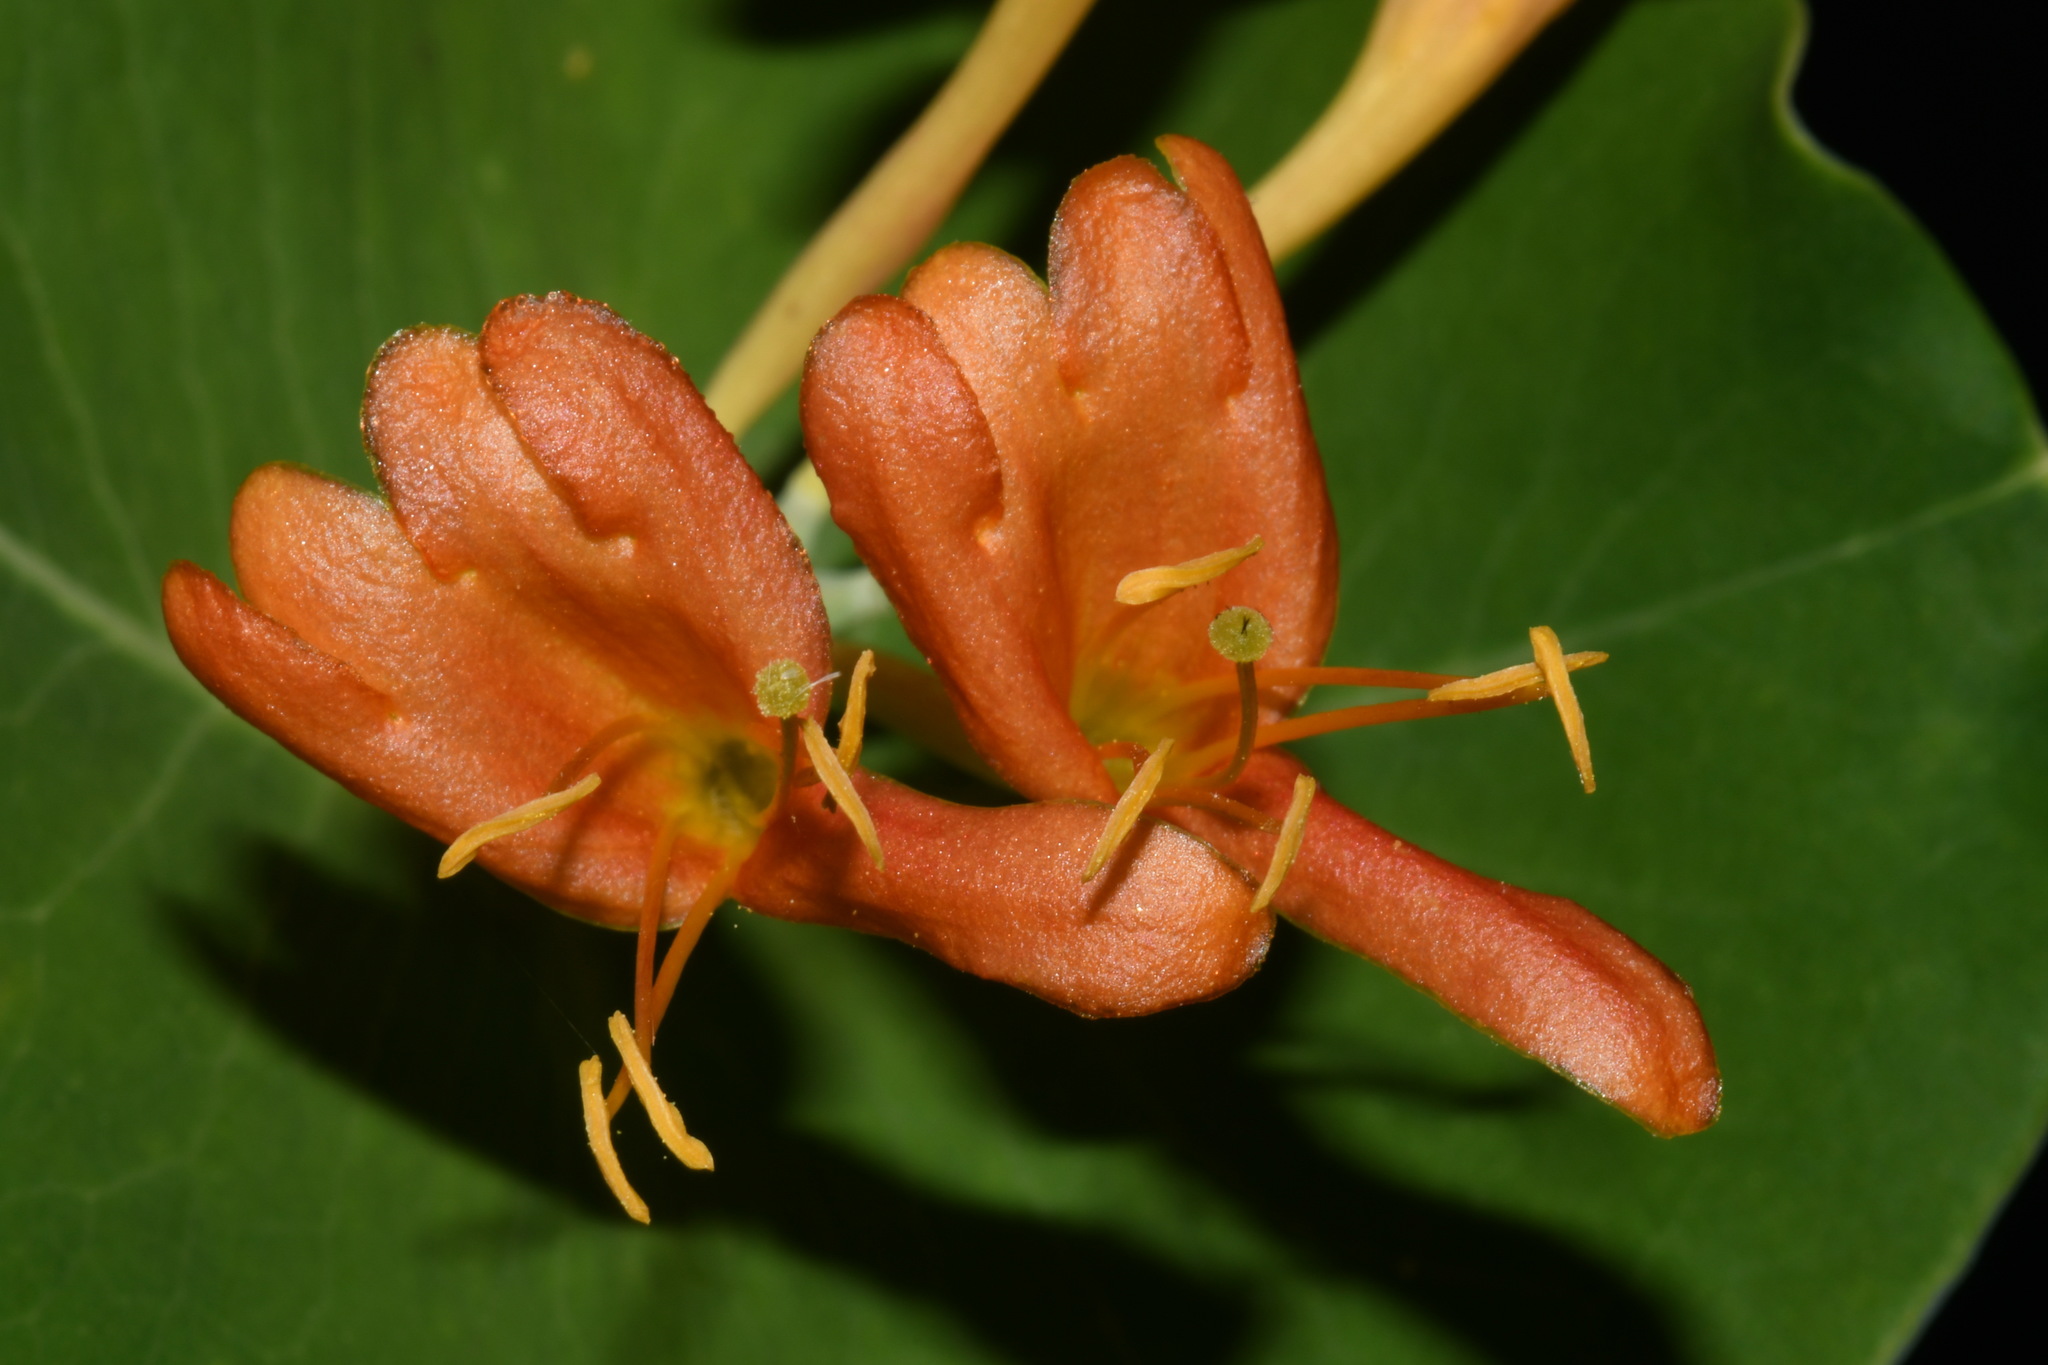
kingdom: Plantae
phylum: Tracheophyta
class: Magnoliopsida
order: Dipsacales
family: Caprifoliaceae
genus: Lonicera
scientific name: Lonicera flava
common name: Yellow honeysuckle
